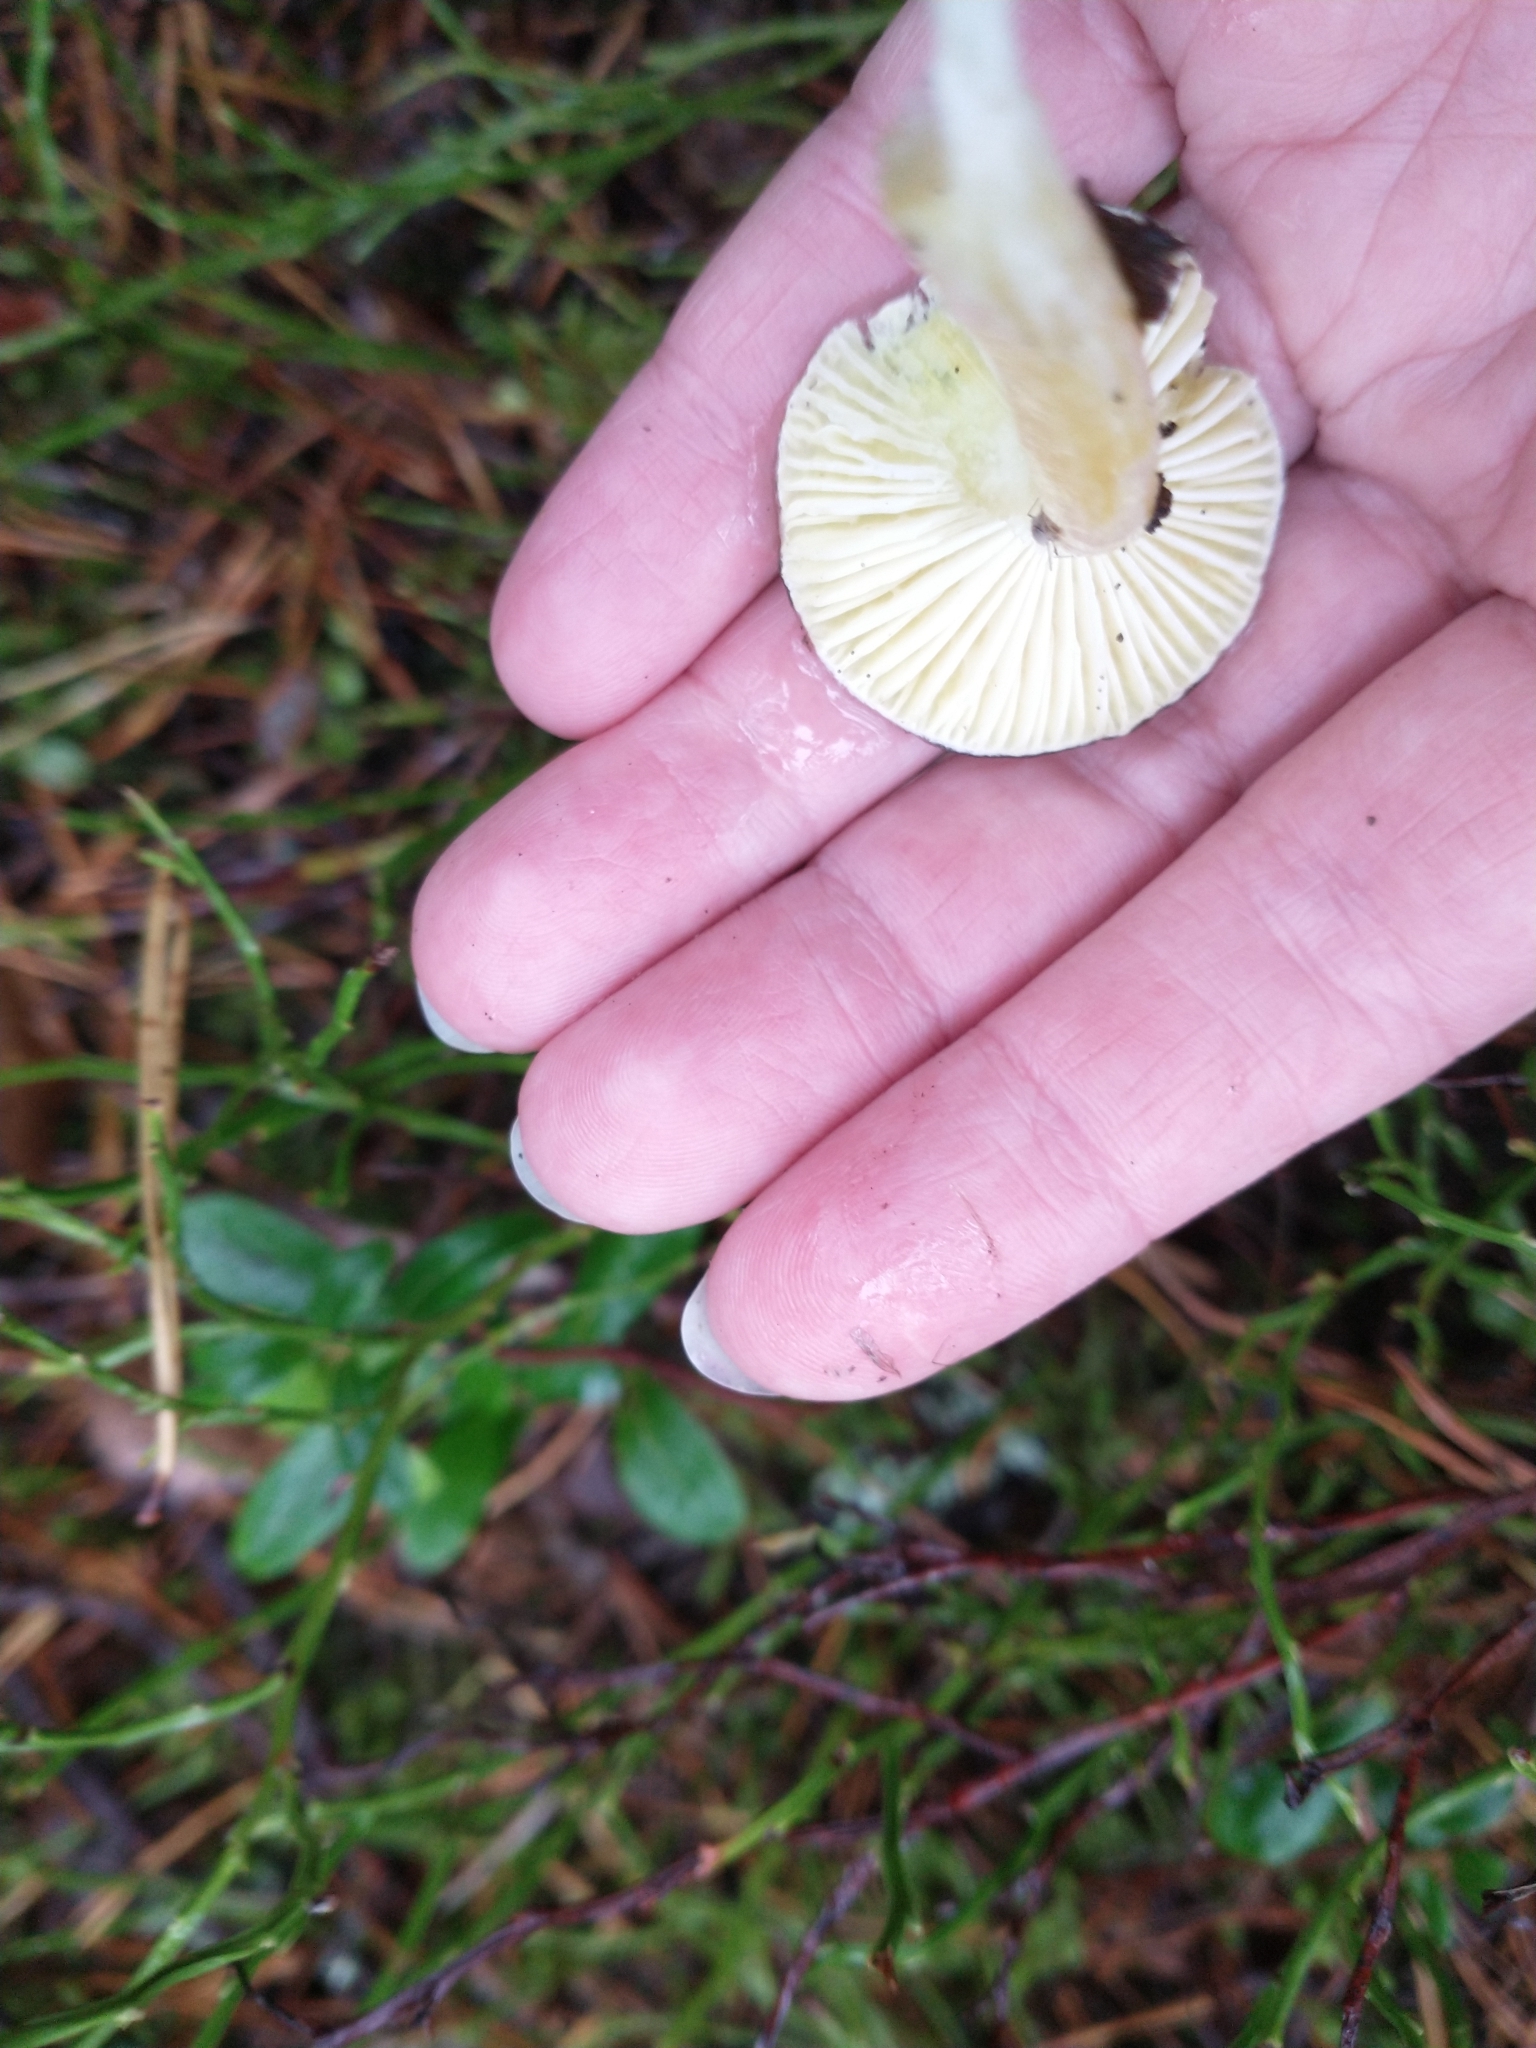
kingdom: Fungi
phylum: Basidiomycota
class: Agaricomycetes
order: Agaricales
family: Hygrophoraceae
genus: Hygrophorus
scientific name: Hygrophorus hypothejus
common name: Herald of winter
